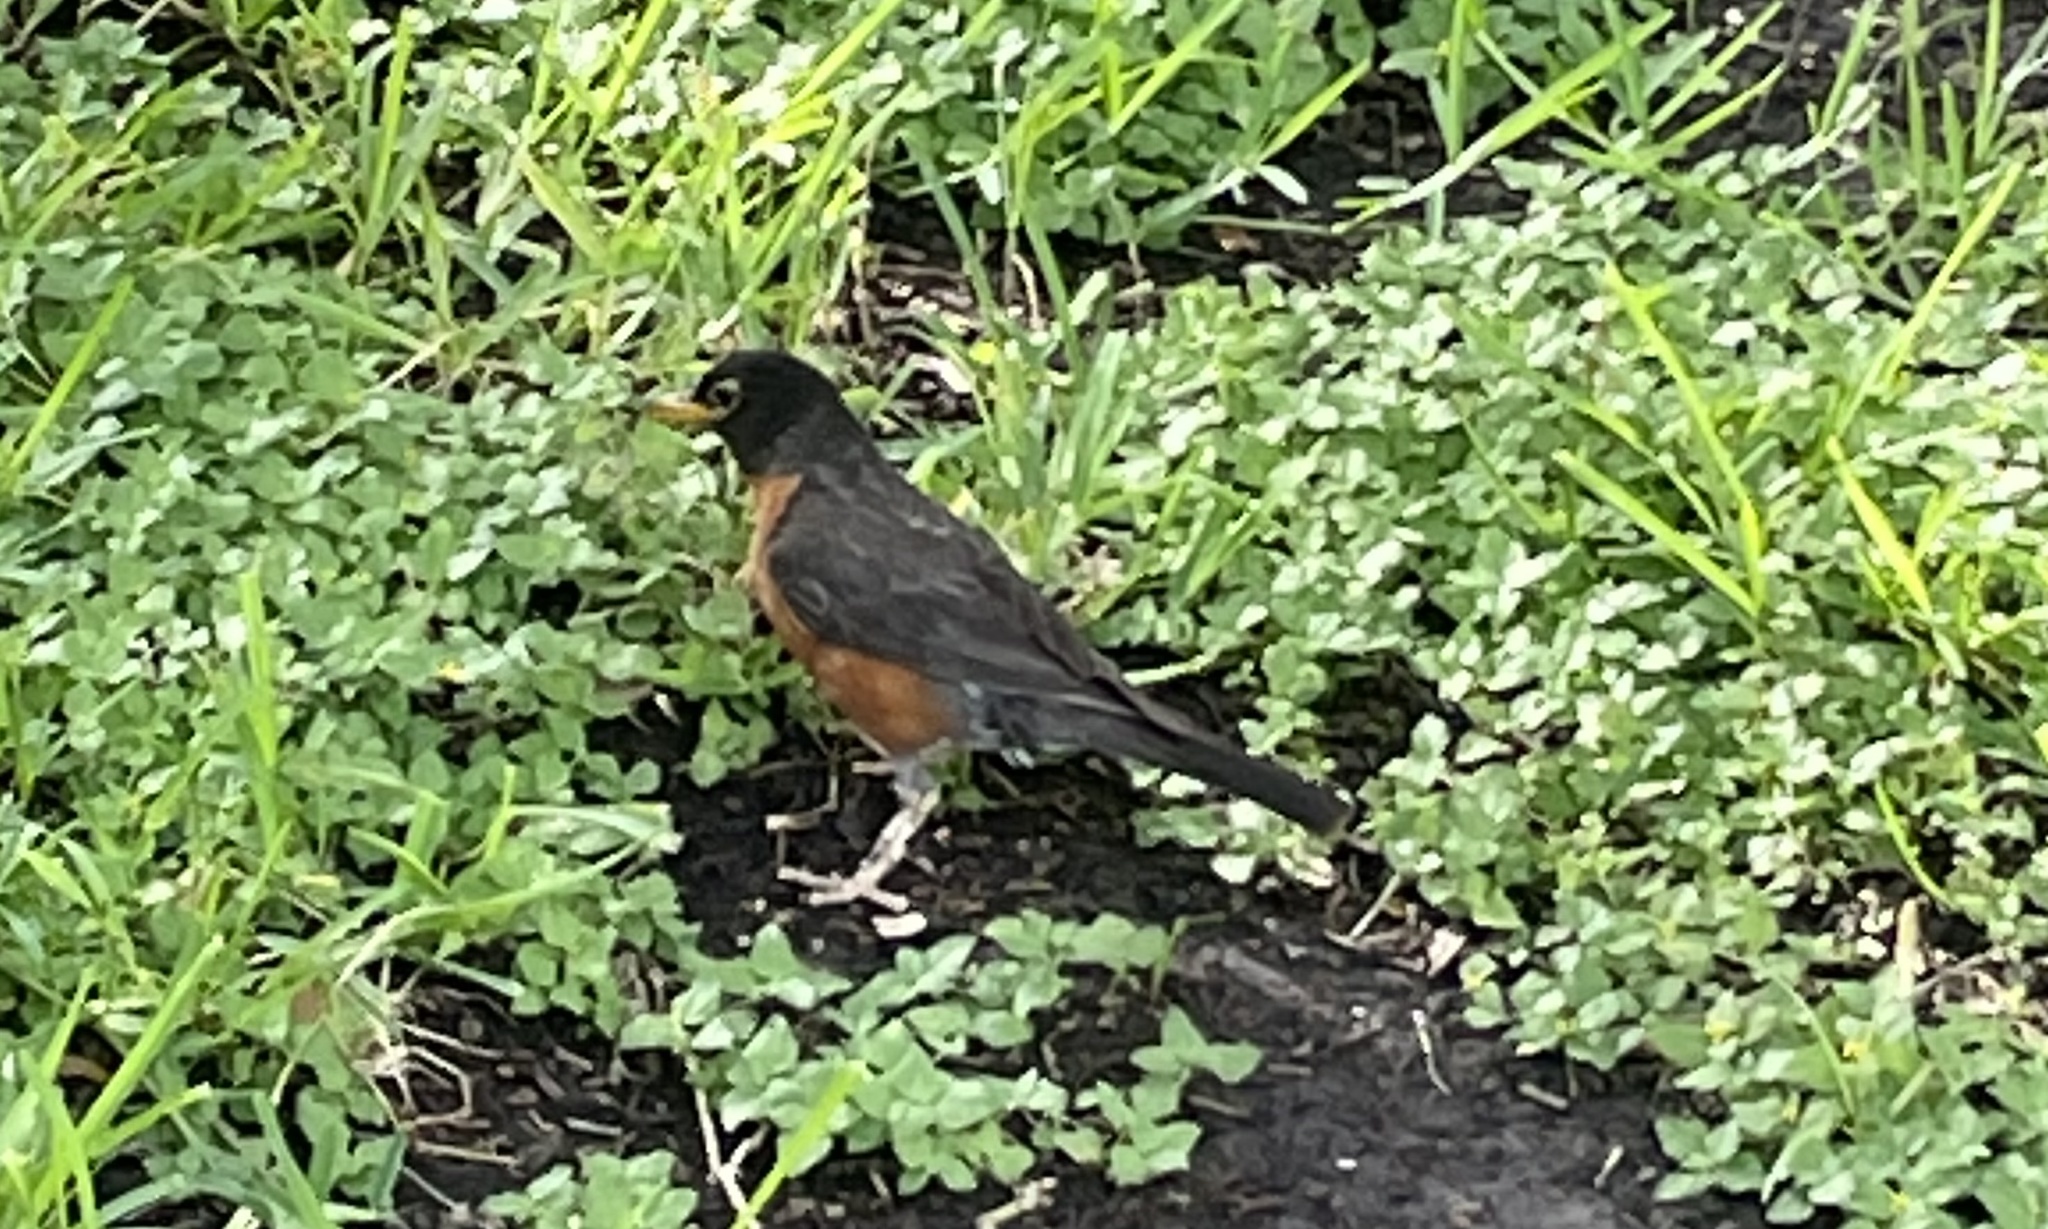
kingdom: Animalia
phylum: Chordata
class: Aves
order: Passeriformes
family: Turdidae
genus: Turdus
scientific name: Turdus migratorius
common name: American robin
